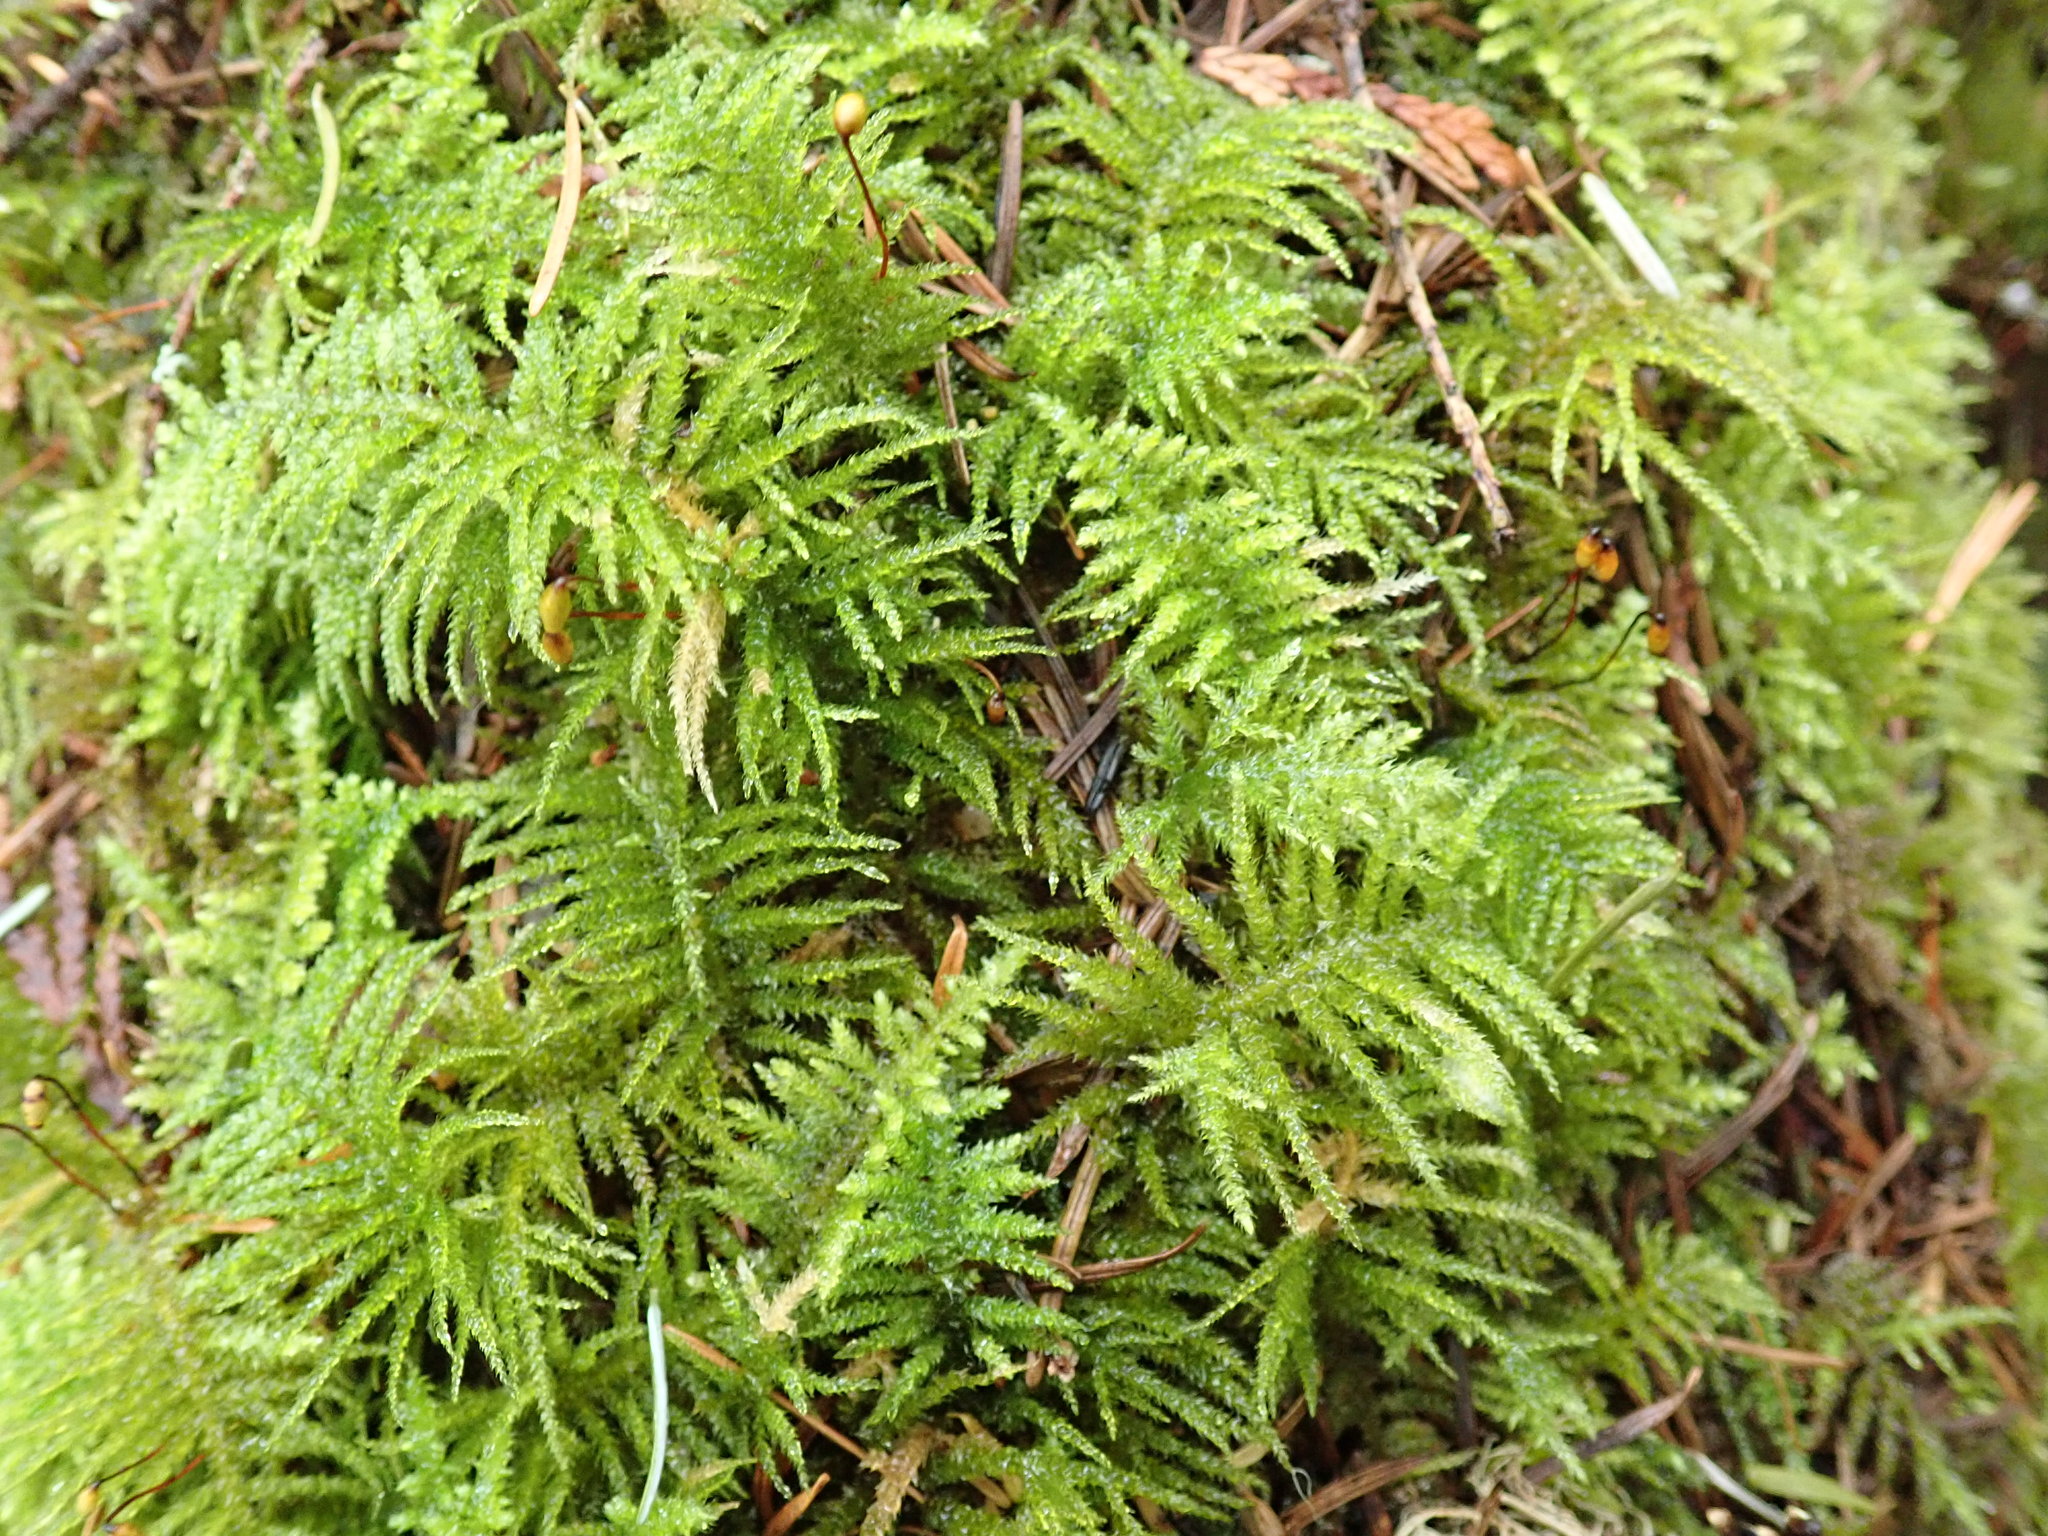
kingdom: Plantae
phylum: Bryophyta
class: Bryopsida
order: Hypnales
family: Brachytheciaceae
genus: Kindbergia
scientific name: Kindbergia oregana
